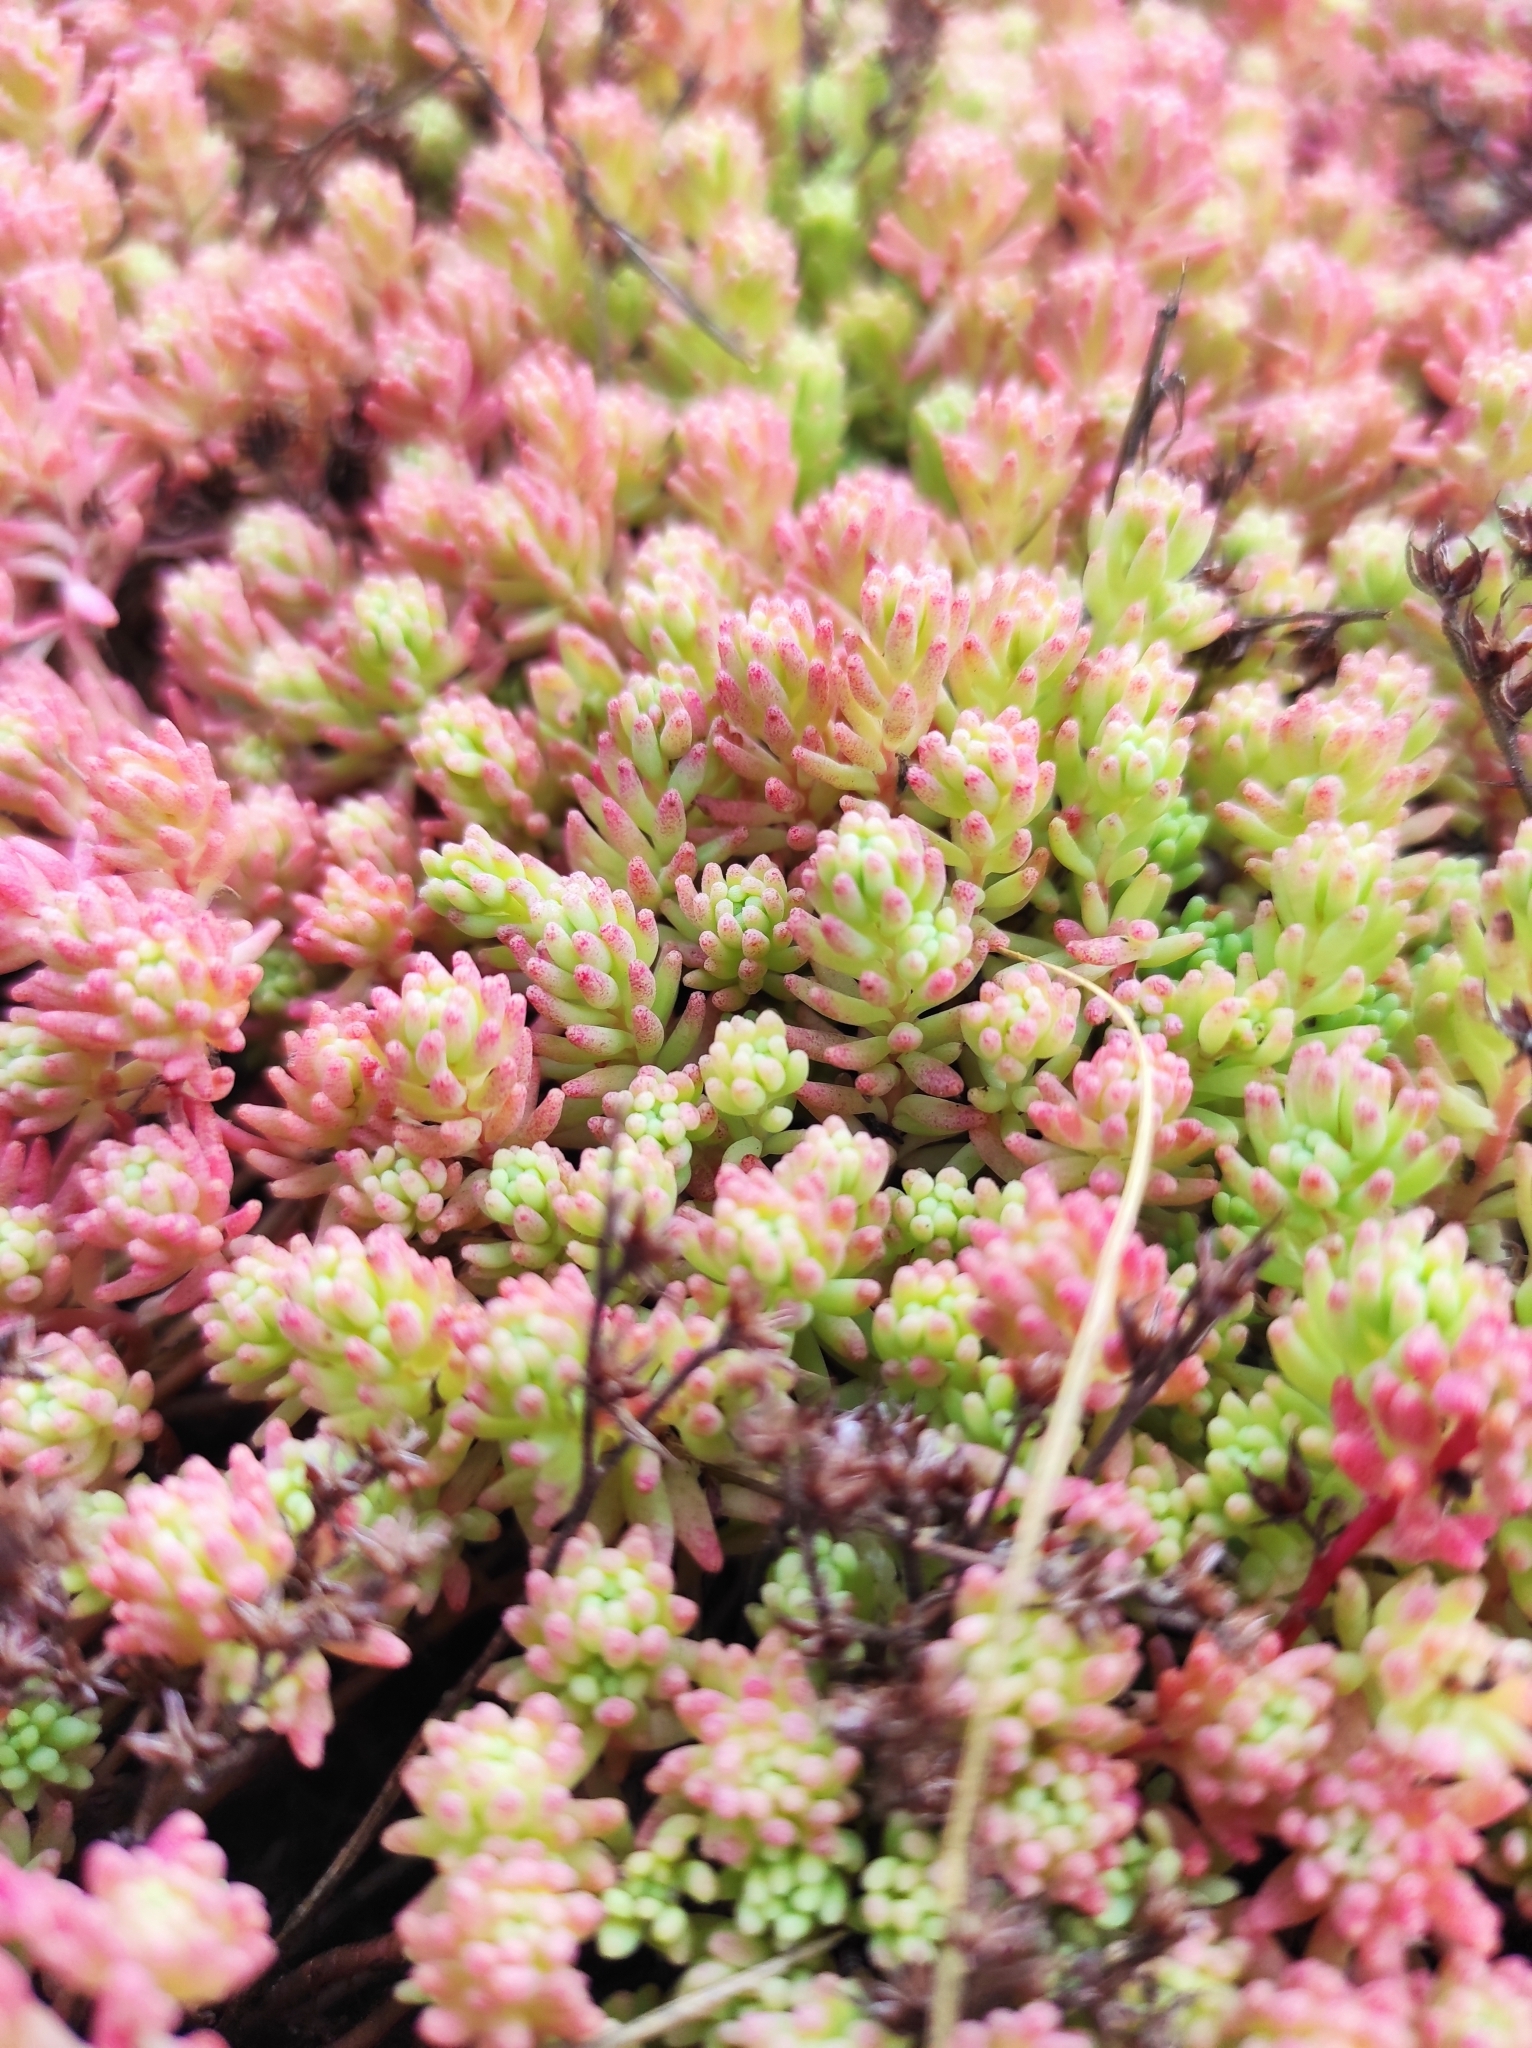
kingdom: Plantae
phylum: Tracheophyta
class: Magnoliopsida
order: Saxifragales
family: Crassulaceae
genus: Sedum
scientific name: Sedum pallidum
